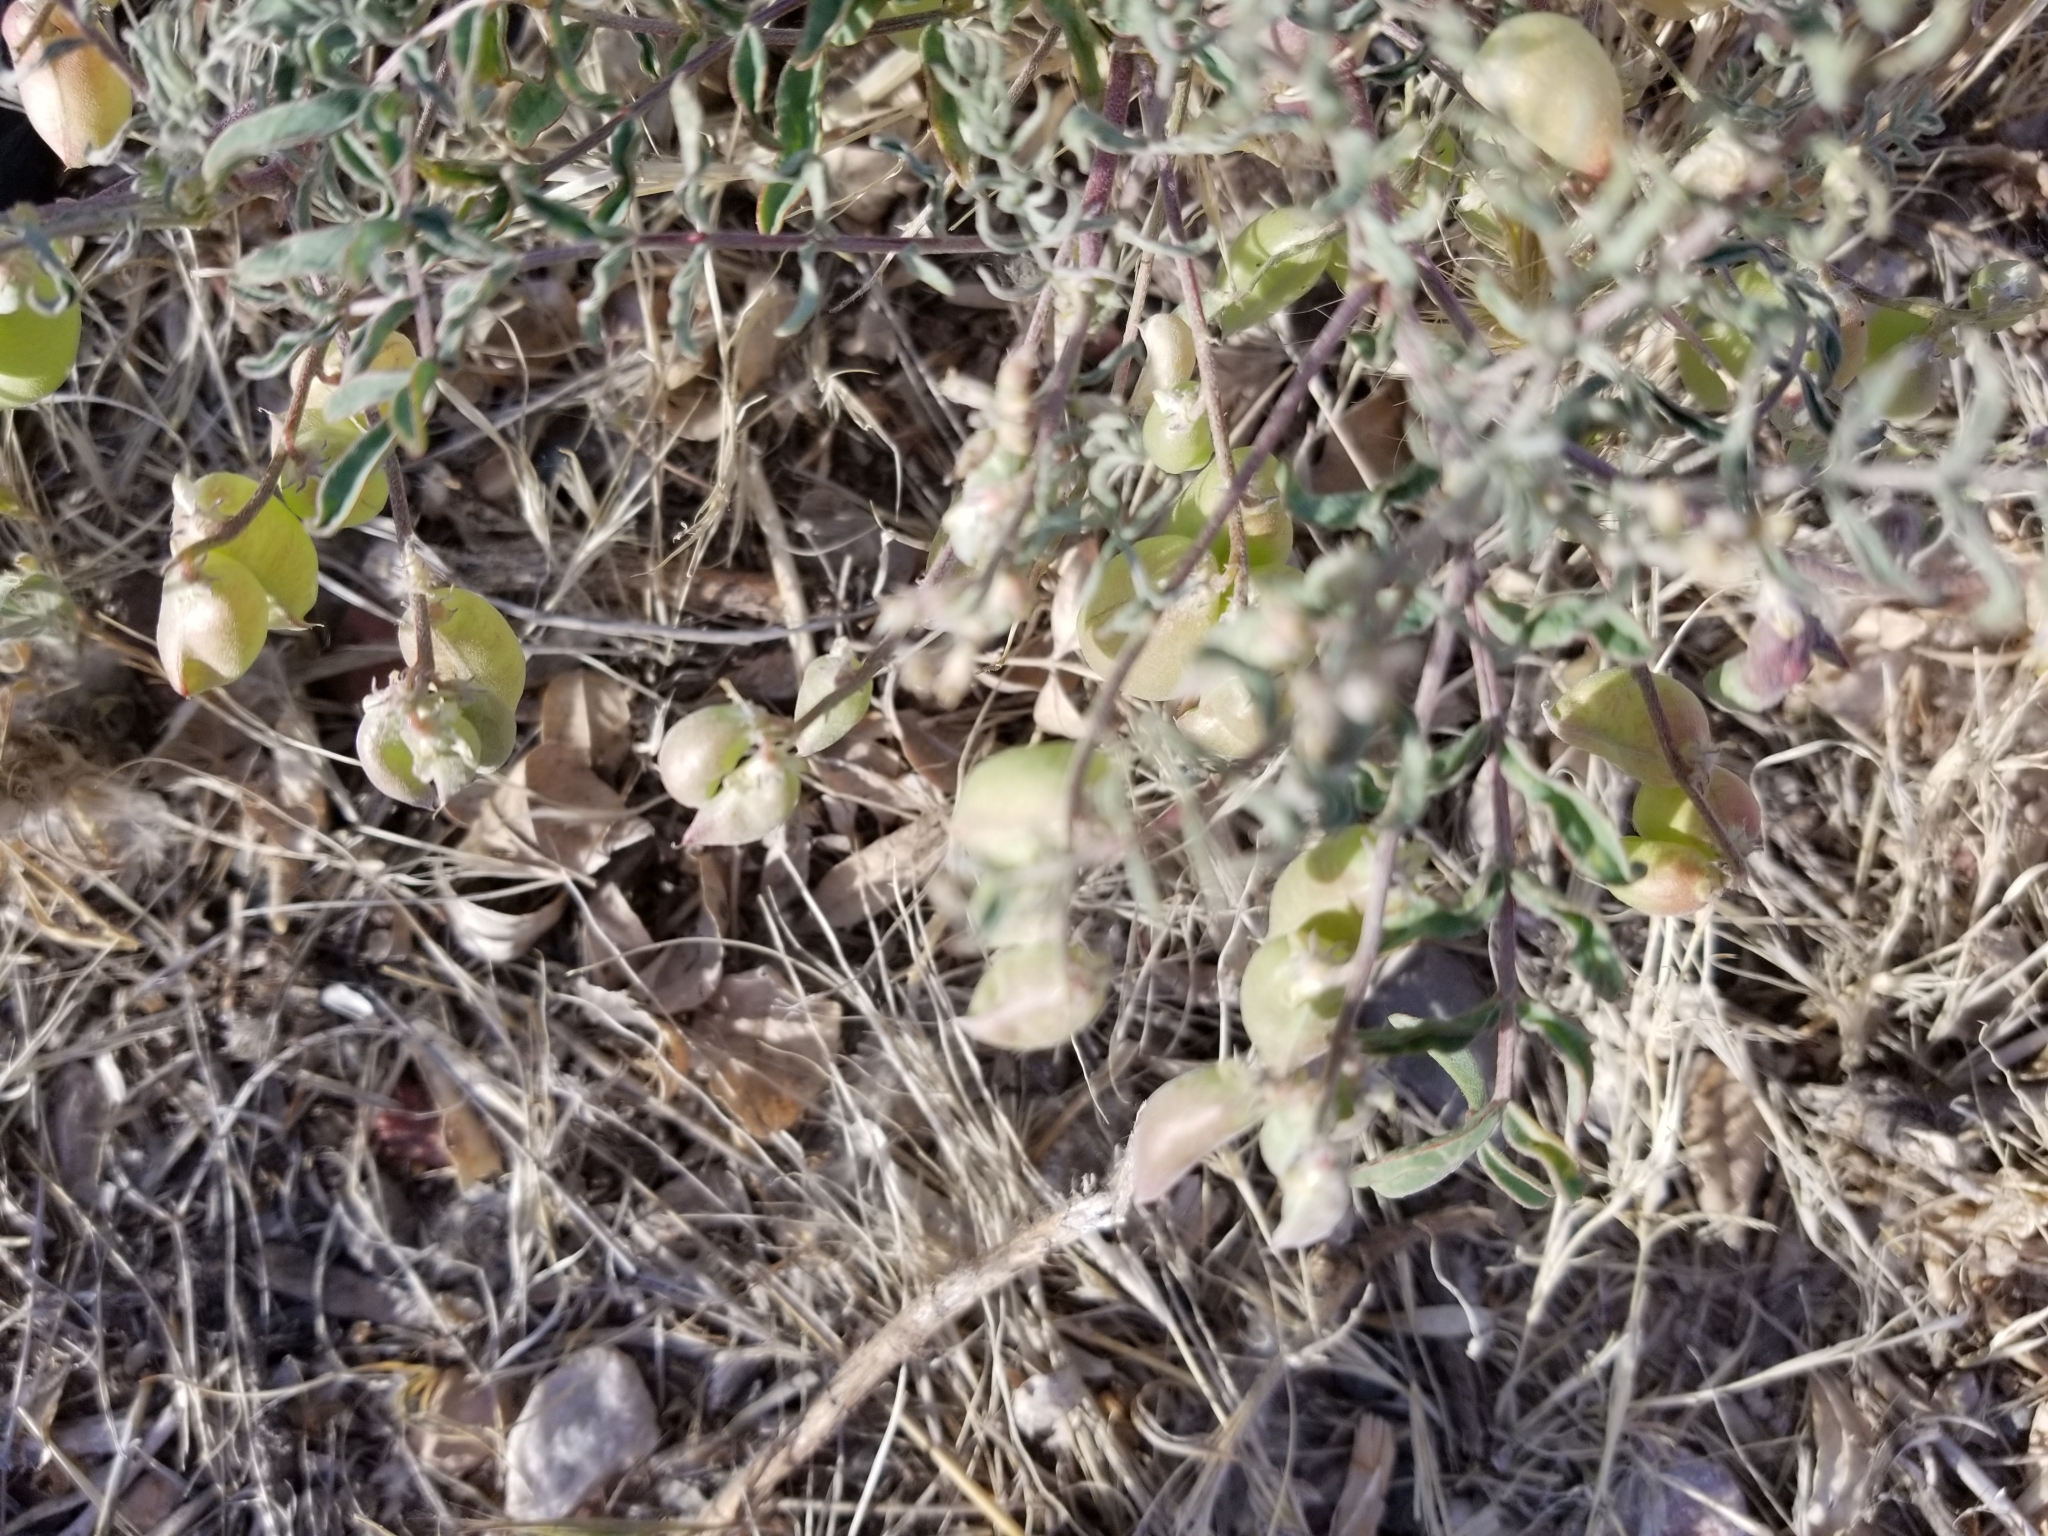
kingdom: Plantae
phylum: Tracheophyta
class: Magnoliopsida
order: Fabales
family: Fabaceae
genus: Astragalus
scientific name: Astragalus allochrous
